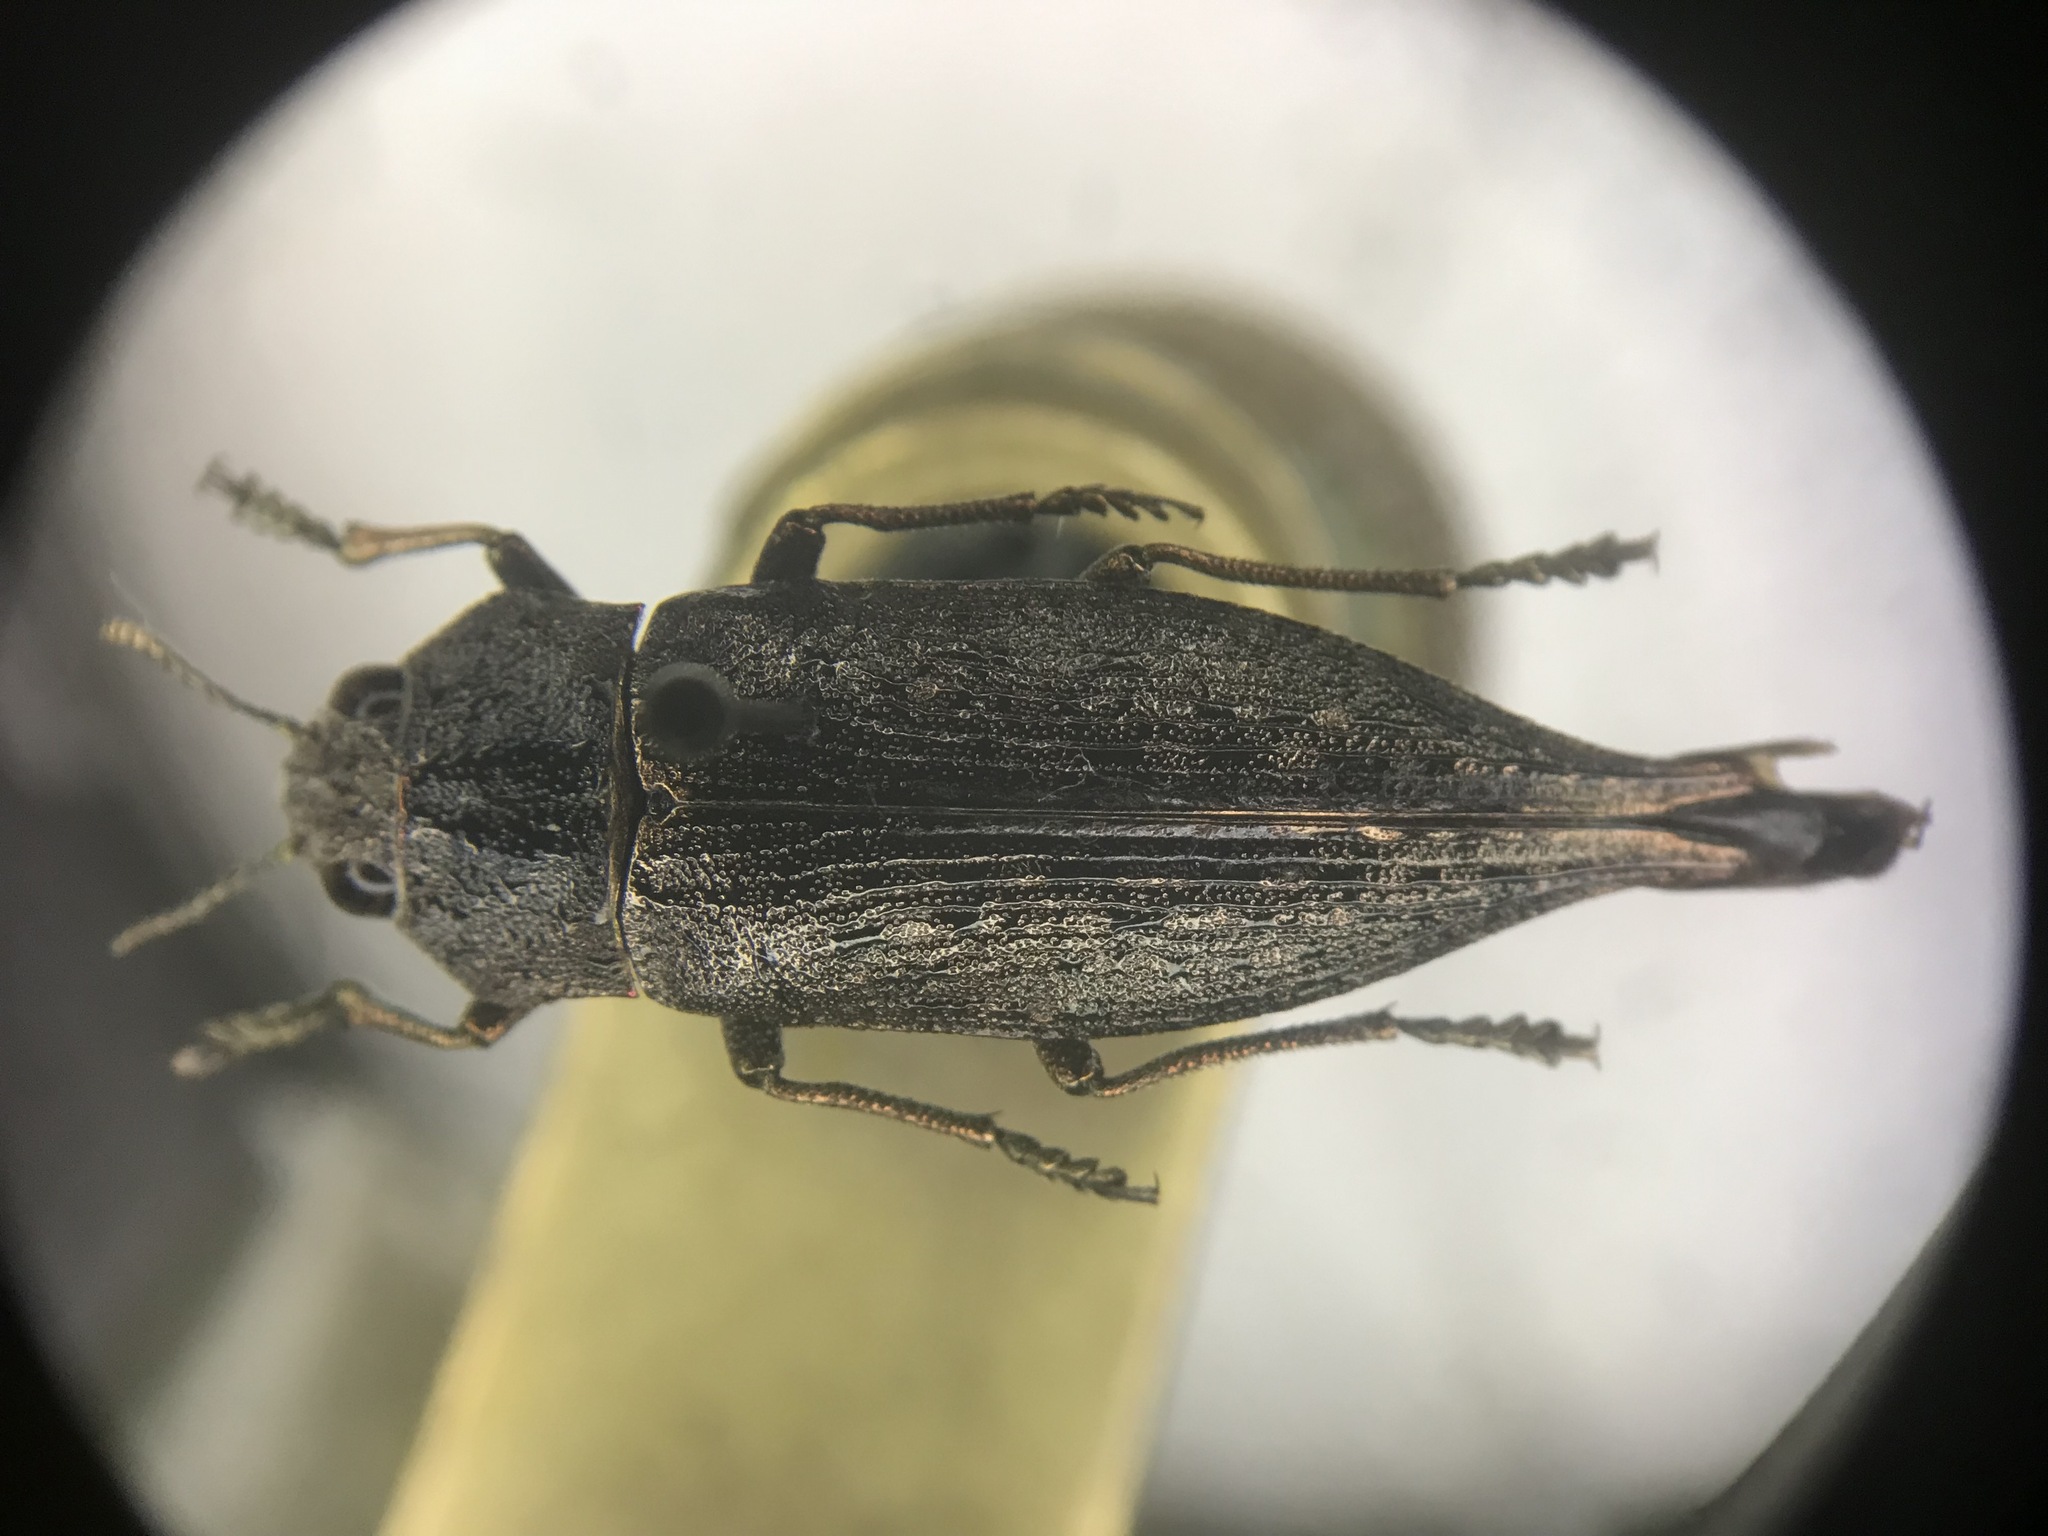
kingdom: Animalia
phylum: Arthropoda
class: Insecta
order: Coleoptera
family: Buprestidae
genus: Dicerca
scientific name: Dicerca tenebrica
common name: Flat-headed poplar borer
